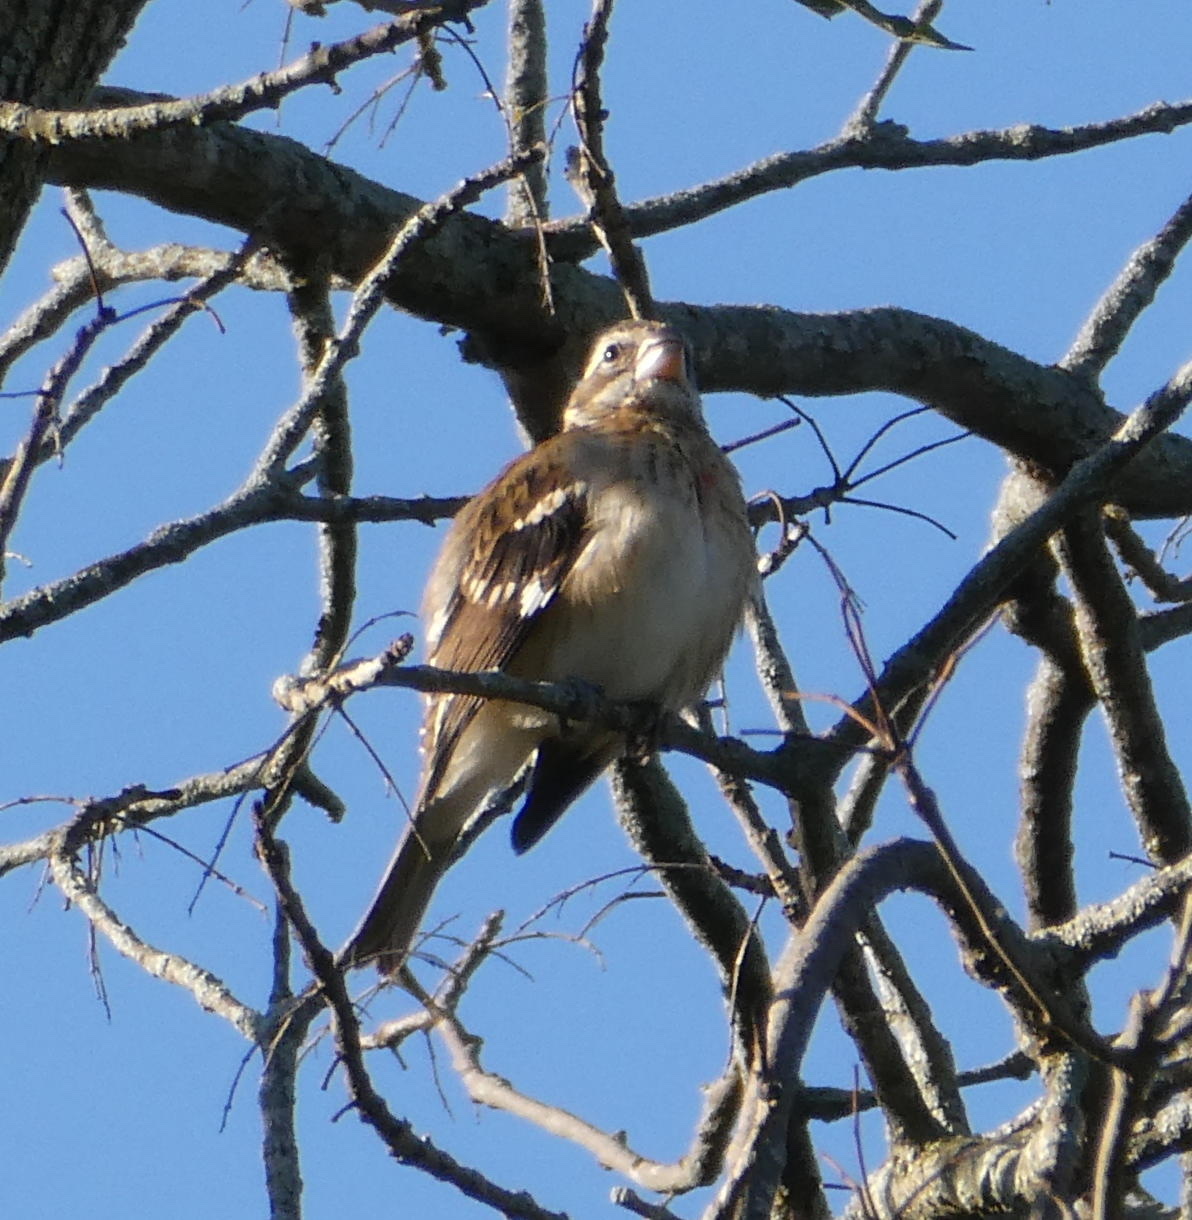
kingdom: Animalia
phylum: Chordata
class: Aves
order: Passeriformes
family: Cardinalidae
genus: Pheucticus
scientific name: Pheucticus ludovicianus
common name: Rose-breasted grosbeak
